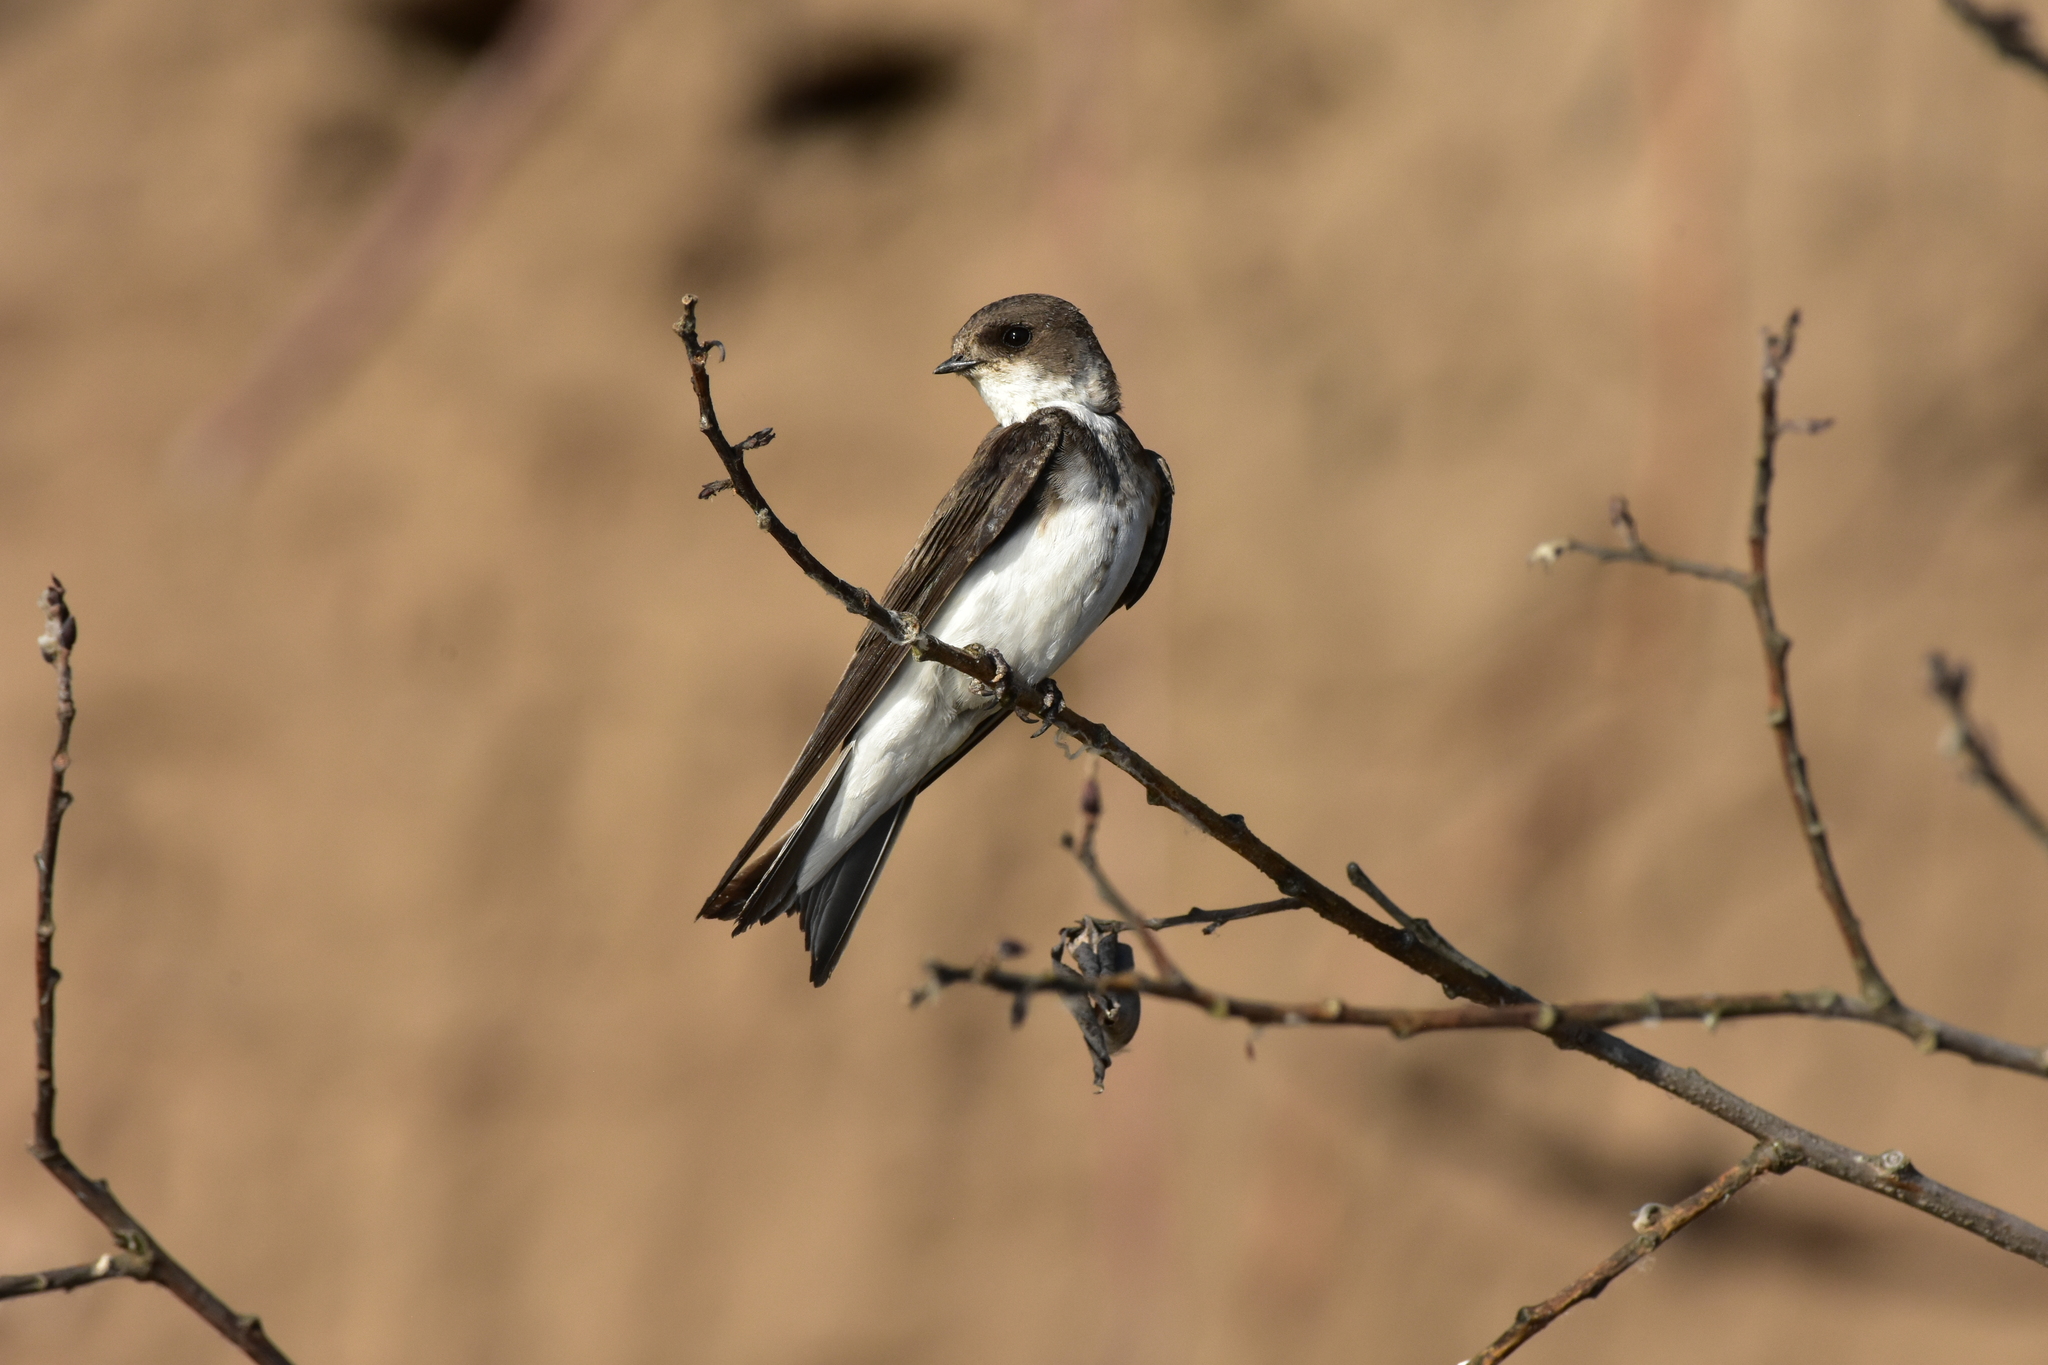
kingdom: Animalia
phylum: Chordata
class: Aves
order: Passeriformes
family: Hirundinidae
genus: Riparia
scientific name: Riparia riparia
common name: Sand martin
